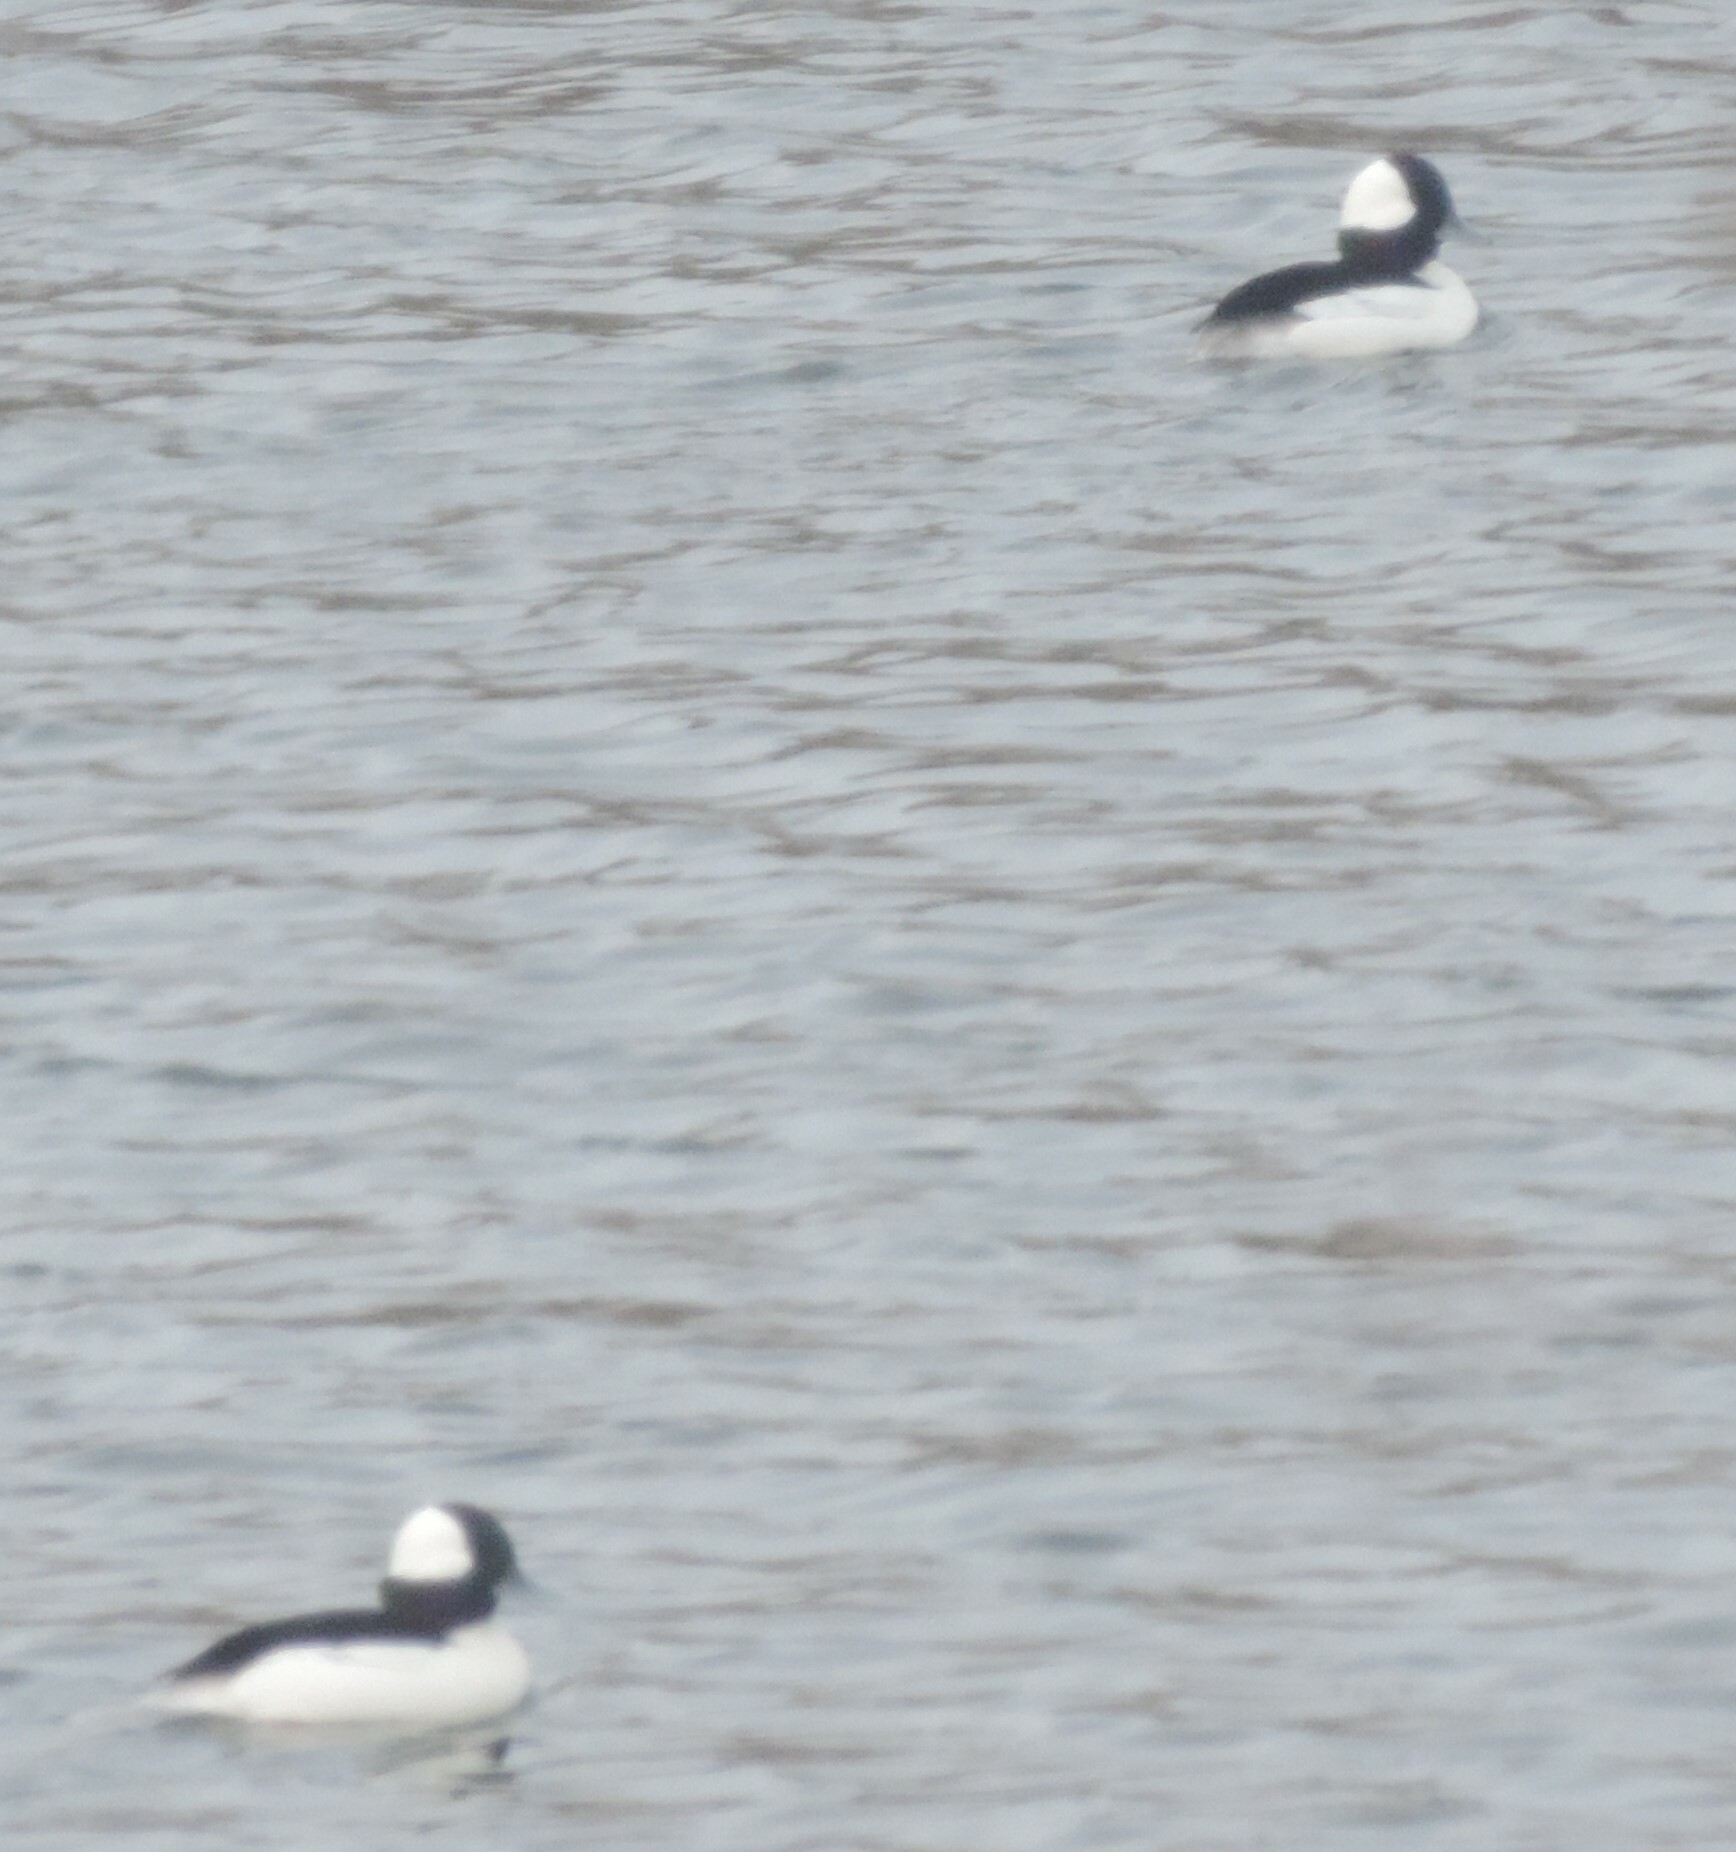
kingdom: Animalia
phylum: Chordata
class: Aves
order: Anseriformes
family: Anatidae
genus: Bucephala
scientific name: Bucephala albeola
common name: Bufflehead
